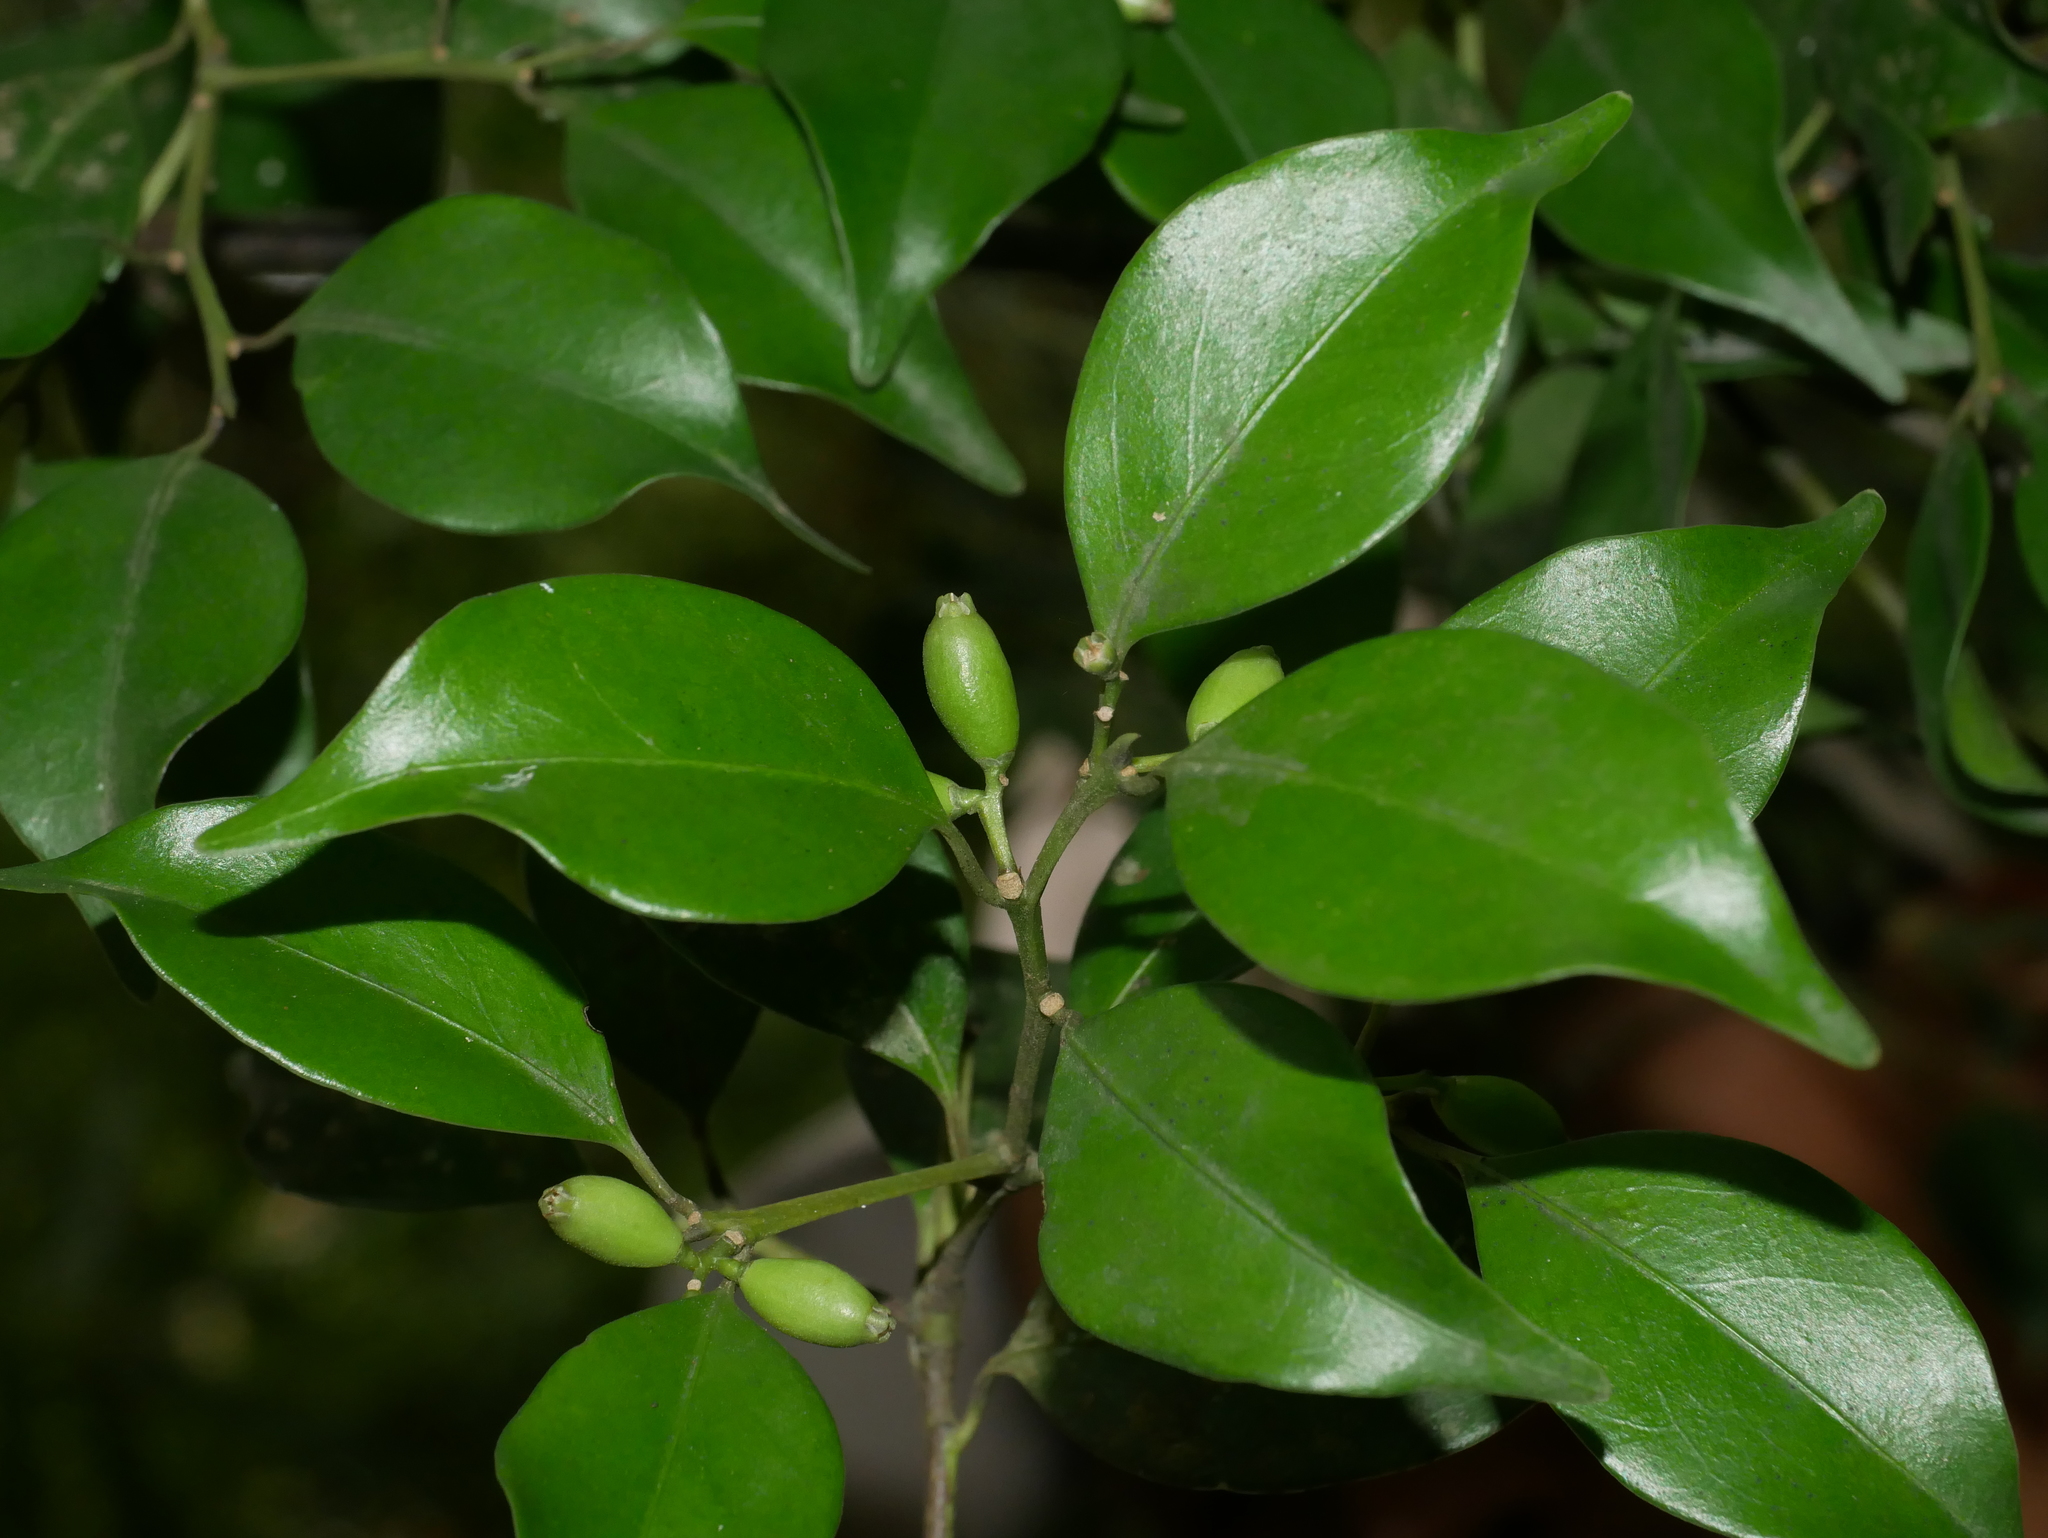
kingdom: Plantae
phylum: Tracheophyta
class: Magnoliopsida
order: Ericales
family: Symplocaceae
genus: Symplocos
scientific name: Symplocos shilanensis
